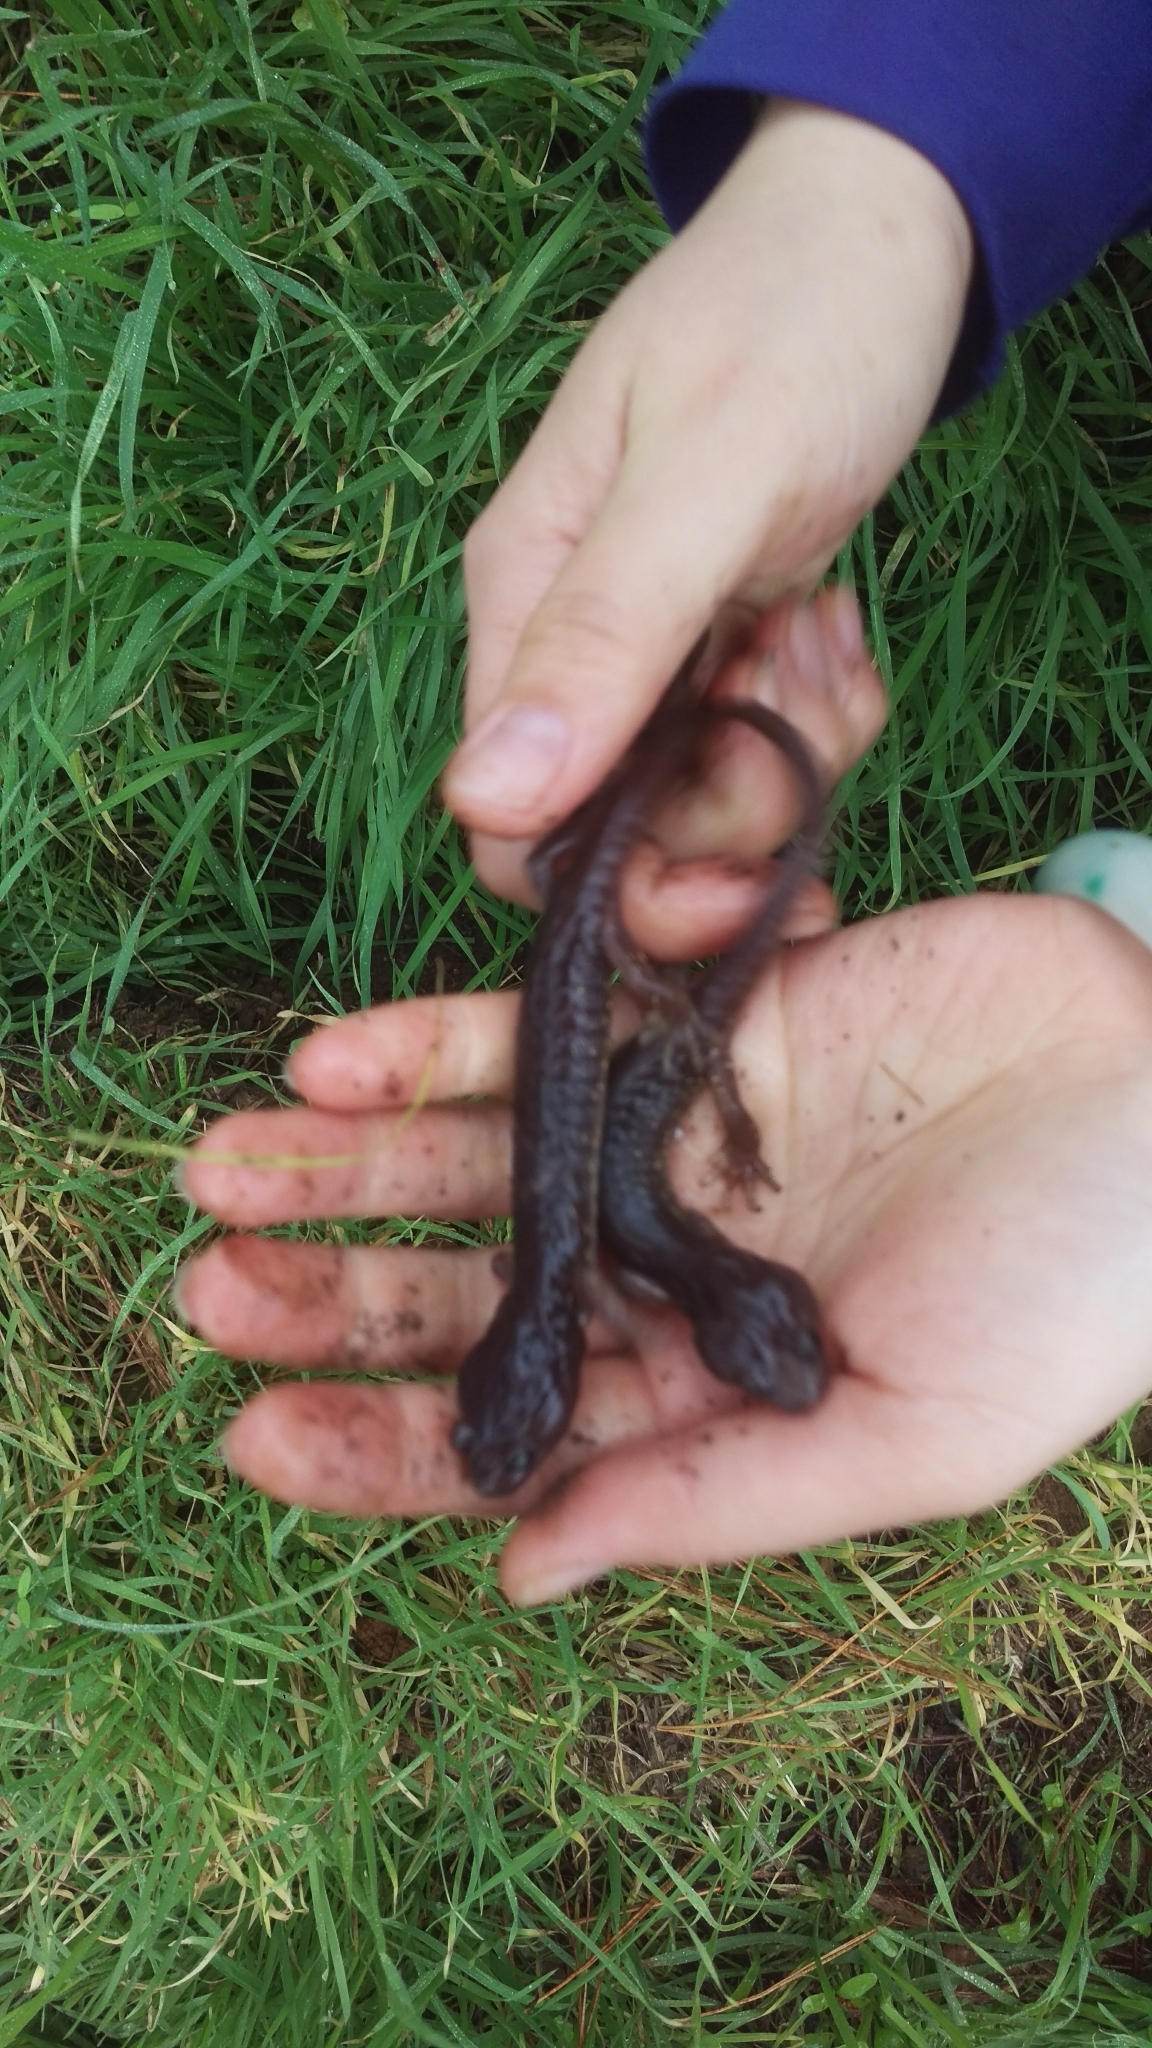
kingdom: Animalia
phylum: Chordata
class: Amphibia
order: Caudata
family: Plethodontidae
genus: Aneides
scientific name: Aneides lugubris
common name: Arboreal salamander
